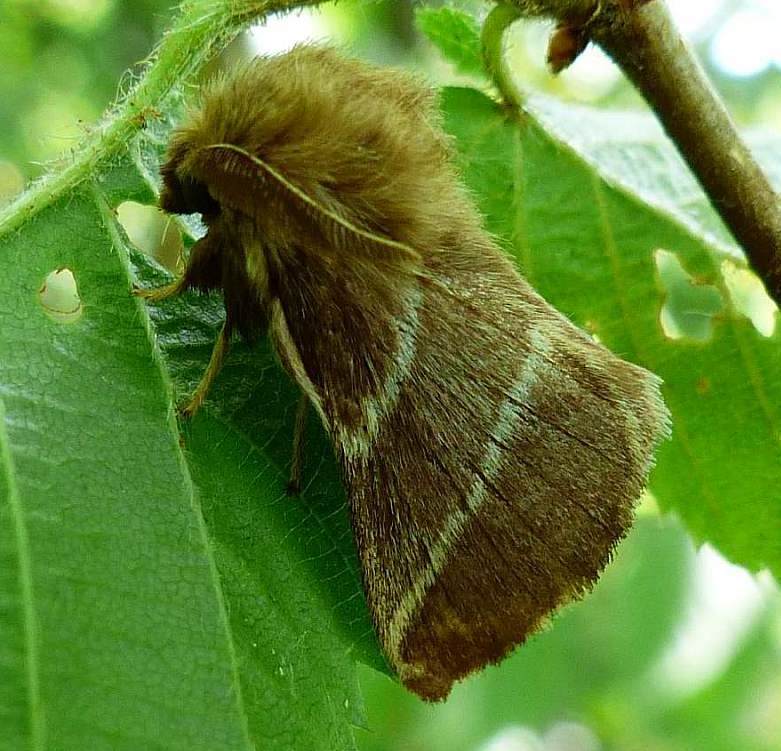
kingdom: Animalia
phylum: Arthropoda
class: Insecta
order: Lepidoptera
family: Lasiocampidae
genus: Malacosoma
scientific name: Malacosoma americana
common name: Eastern tent caterpillar moth
